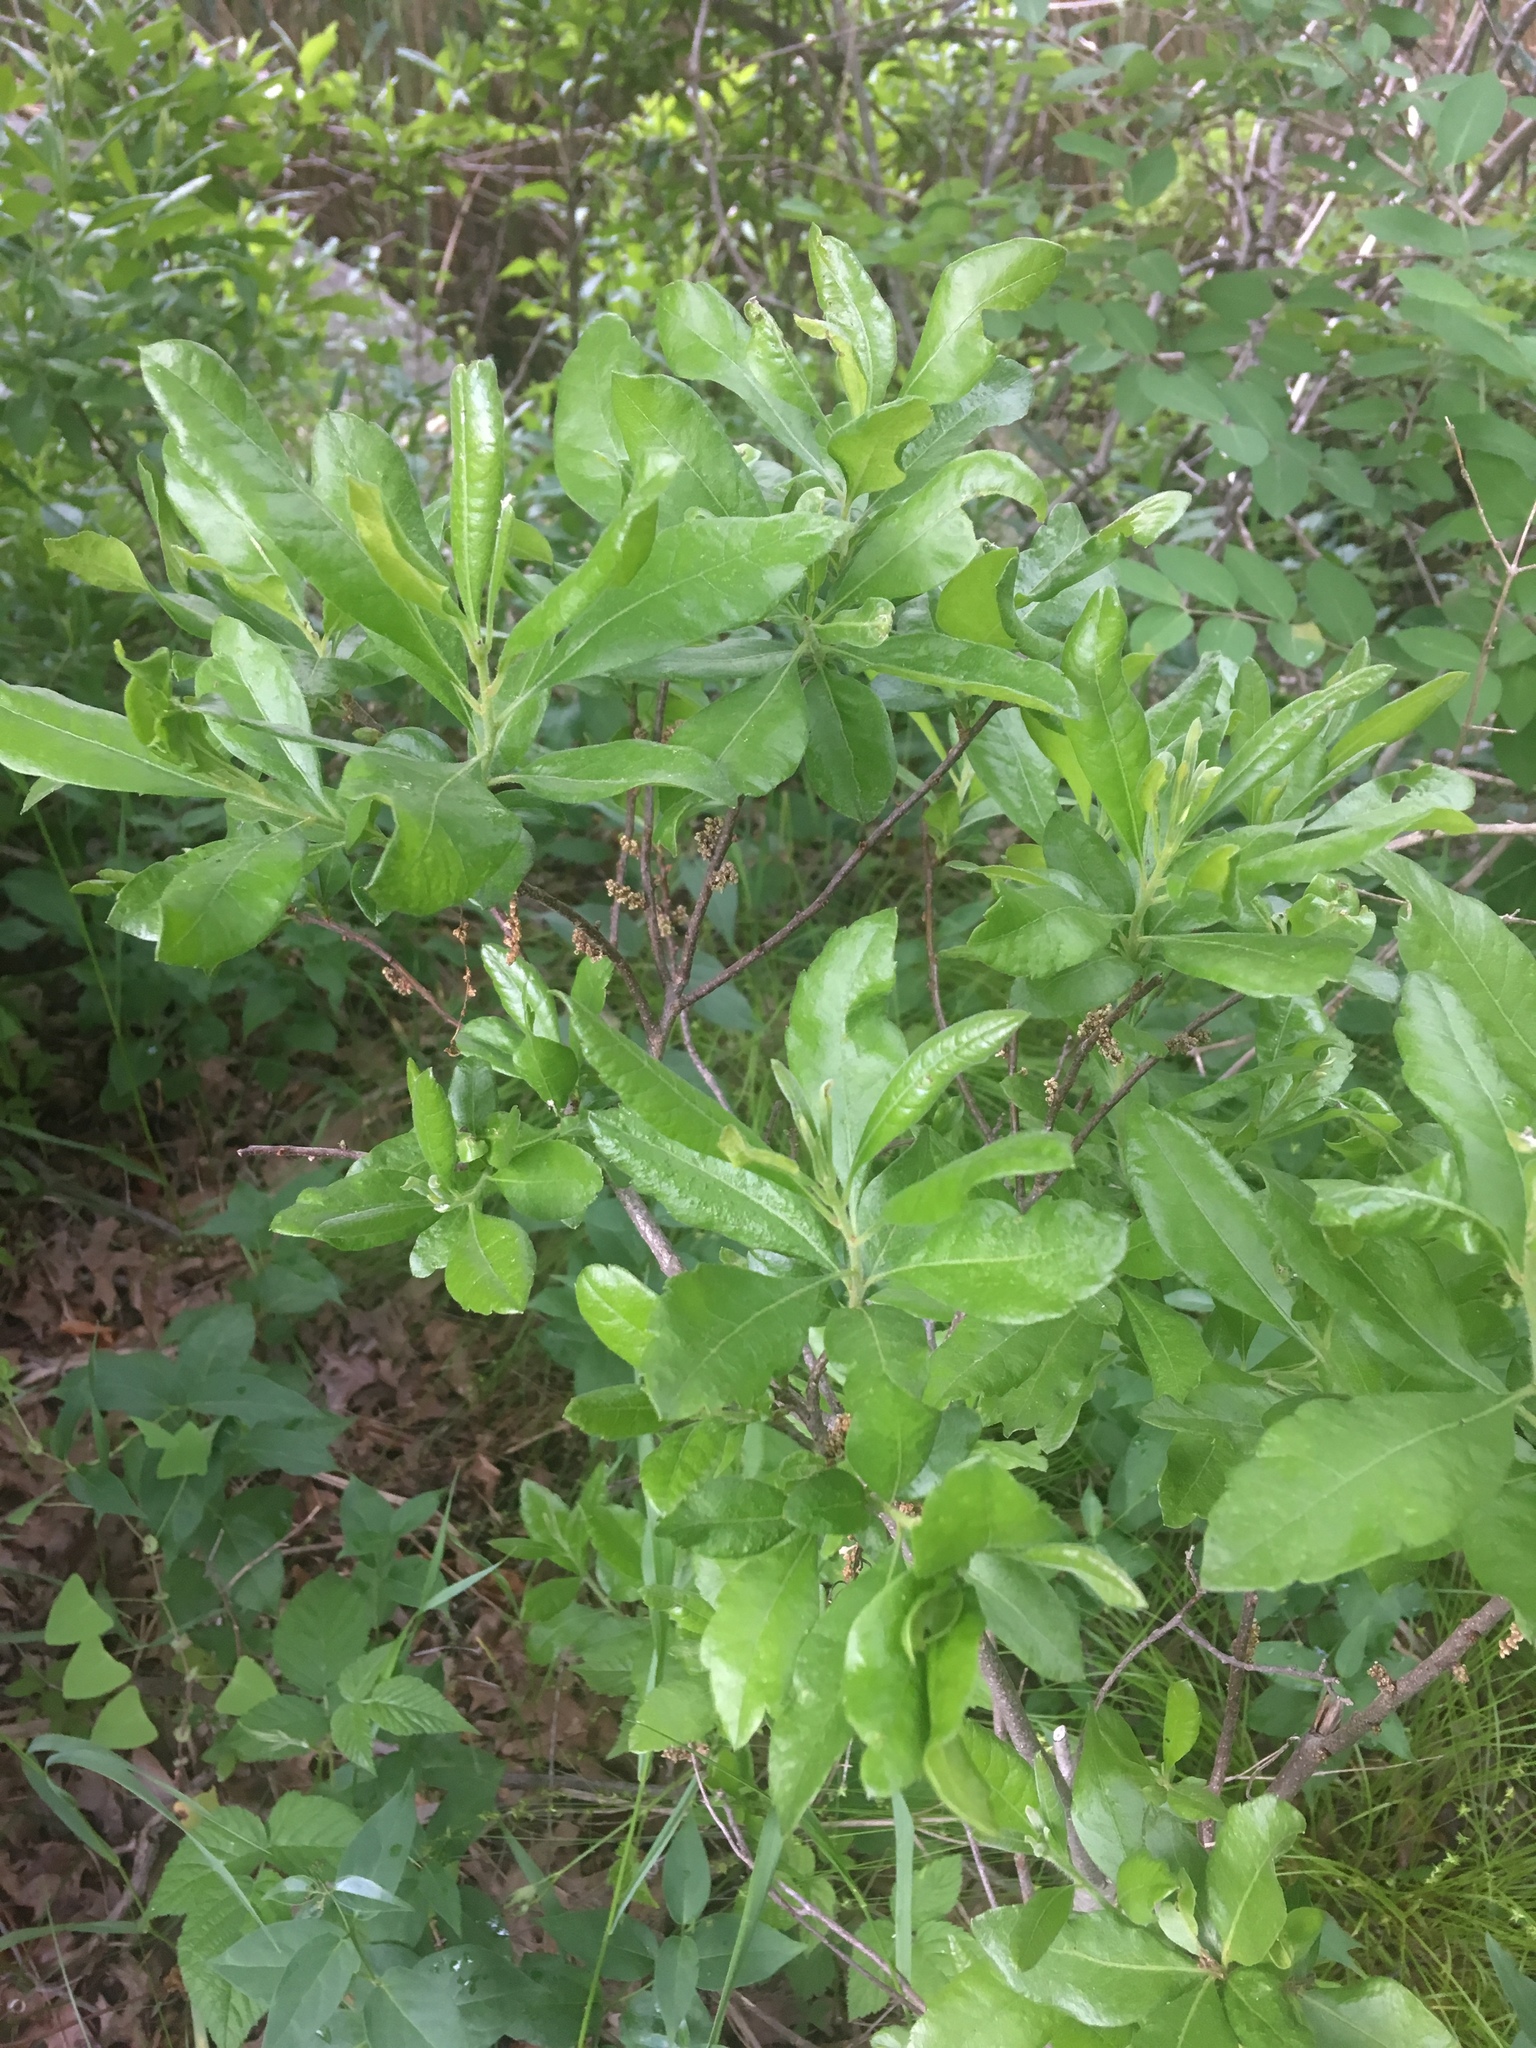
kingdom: Plantae
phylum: Tracheophyta
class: Magnoliopsida
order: Fagales
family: Myricaceae
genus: Morella
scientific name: Morella pensylvanica
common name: Northern bayberry
